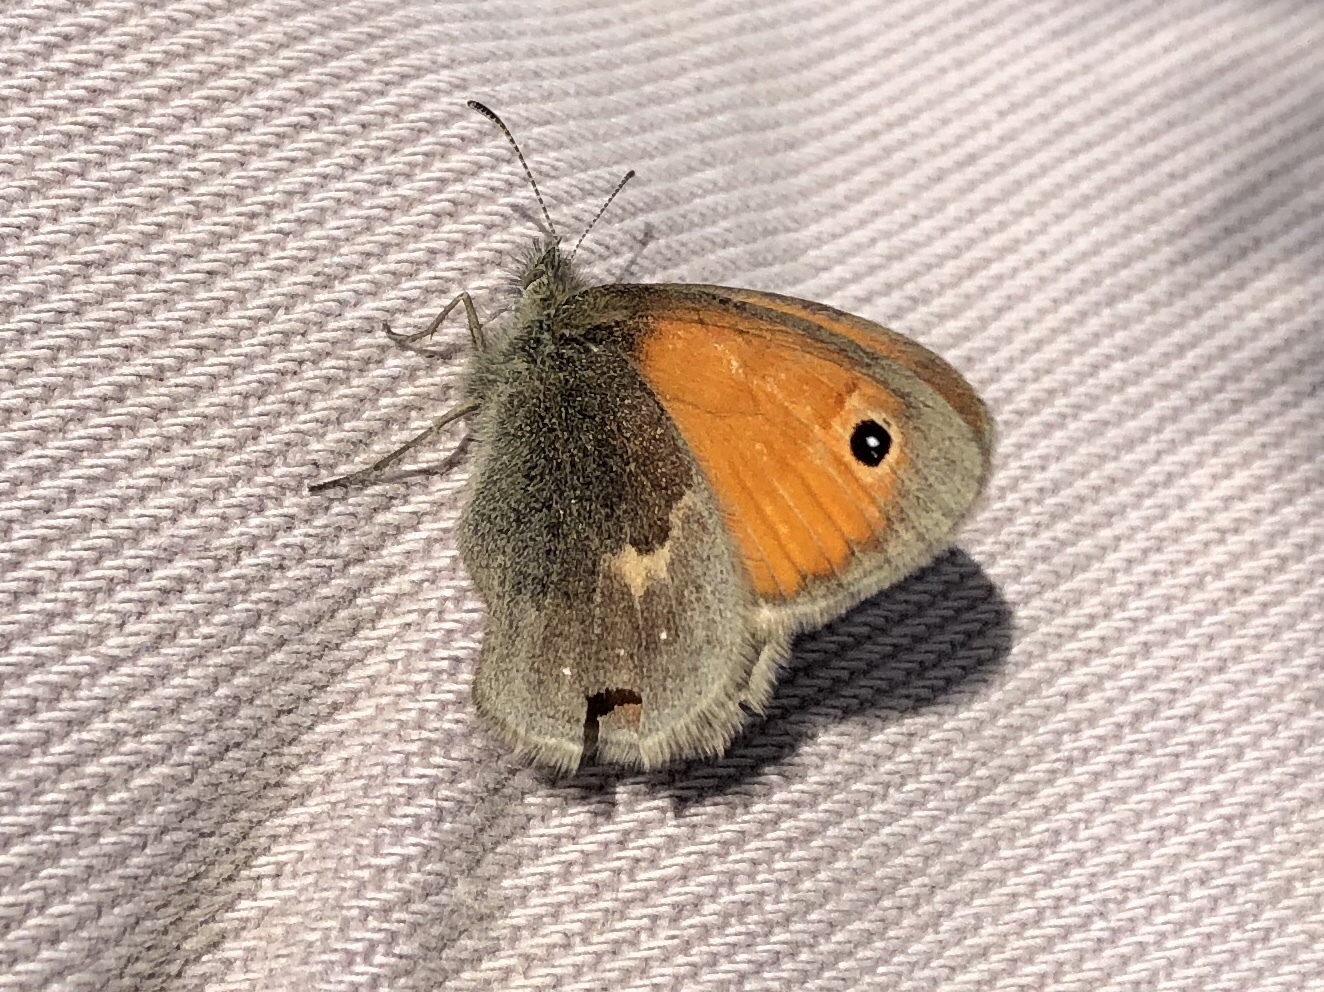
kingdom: Animalia
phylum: Arthropoda
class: Insecta
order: Lepidoptera
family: Nymphalidae
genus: Coenonympha
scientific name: Coenonympha pamphilus
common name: Small heath
